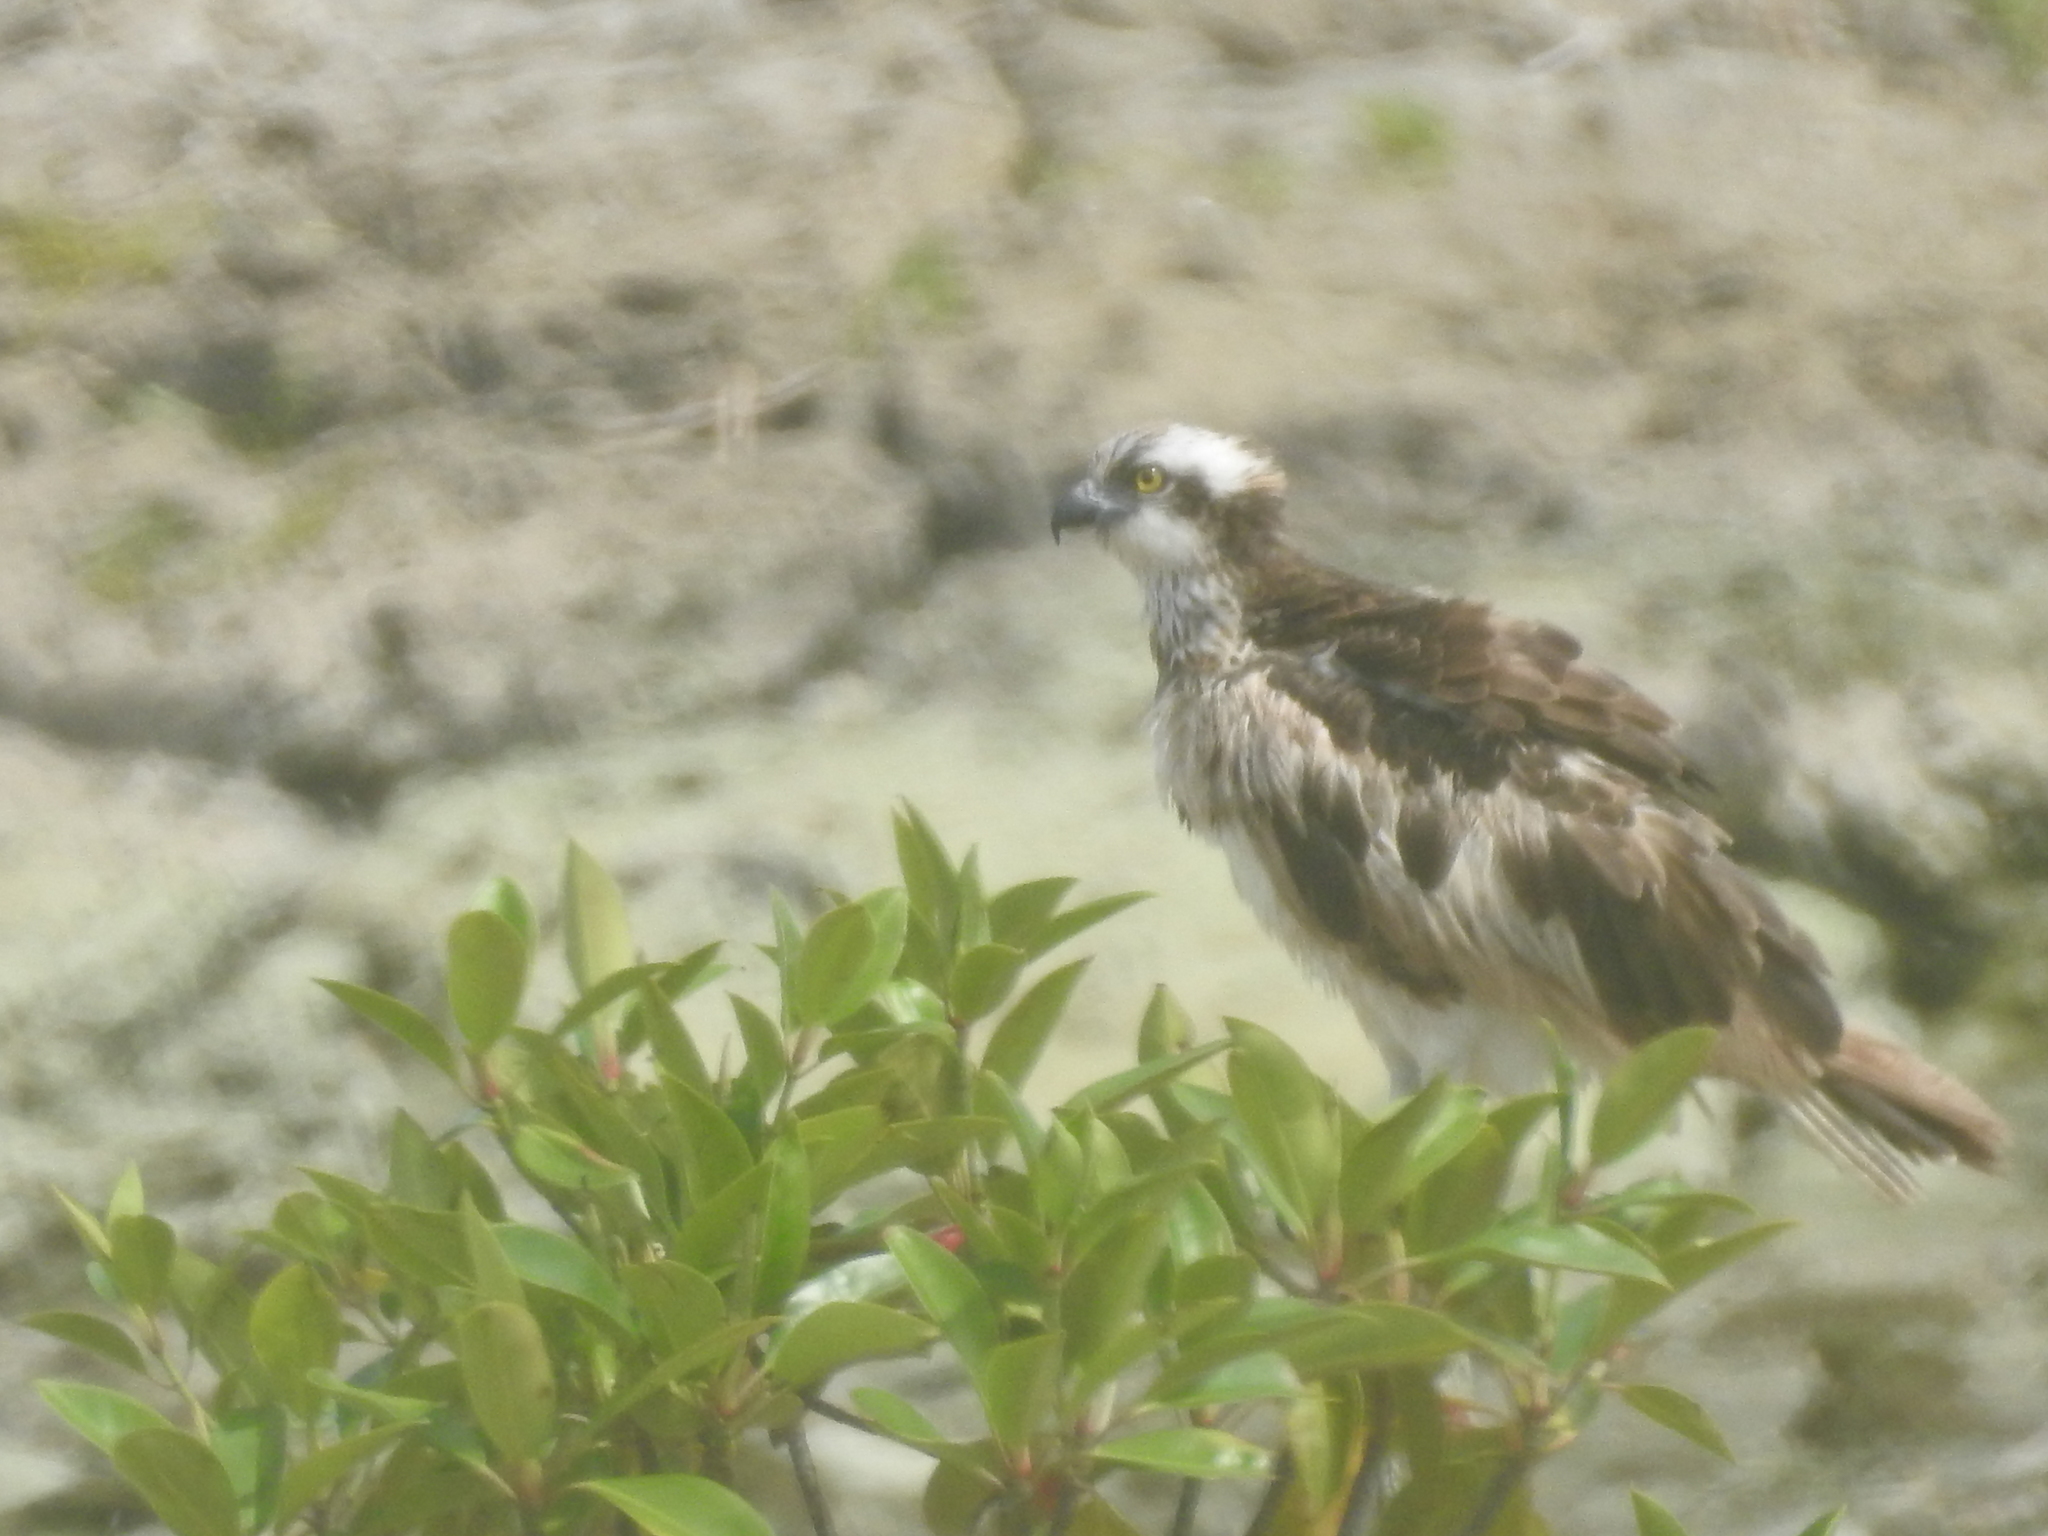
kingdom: Animalia
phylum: Chordata
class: Aves
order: Accipitriformes
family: Pandionidae
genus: Pandion
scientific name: Pandion haliaetus
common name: Osprey
